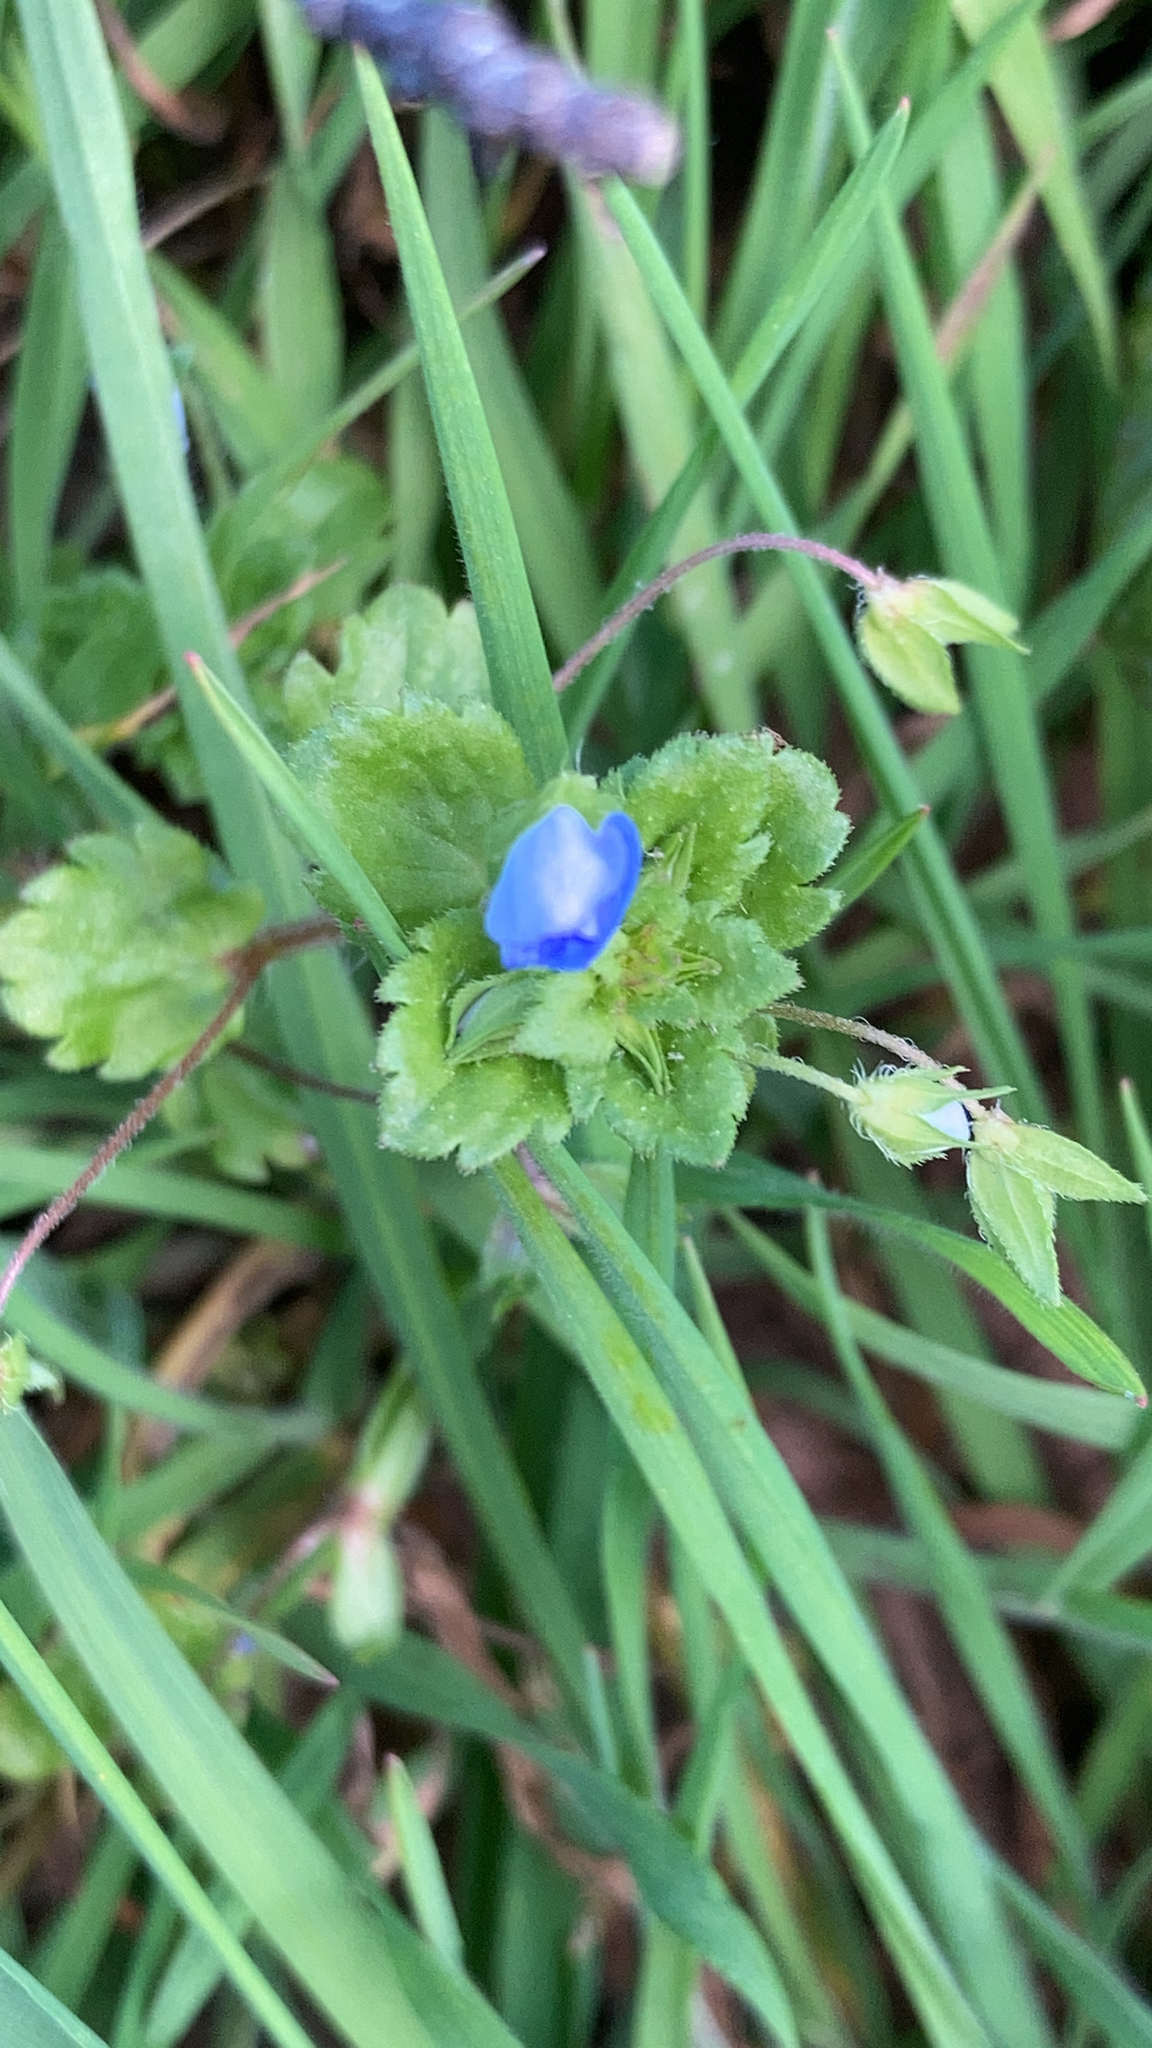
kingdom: Plantae
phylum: Tracheophyta
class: Magnoliopsida
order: Lamiales
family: Plantaginaceae
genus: Veronica
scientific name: Veronica persica
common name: Common field-speedwell
